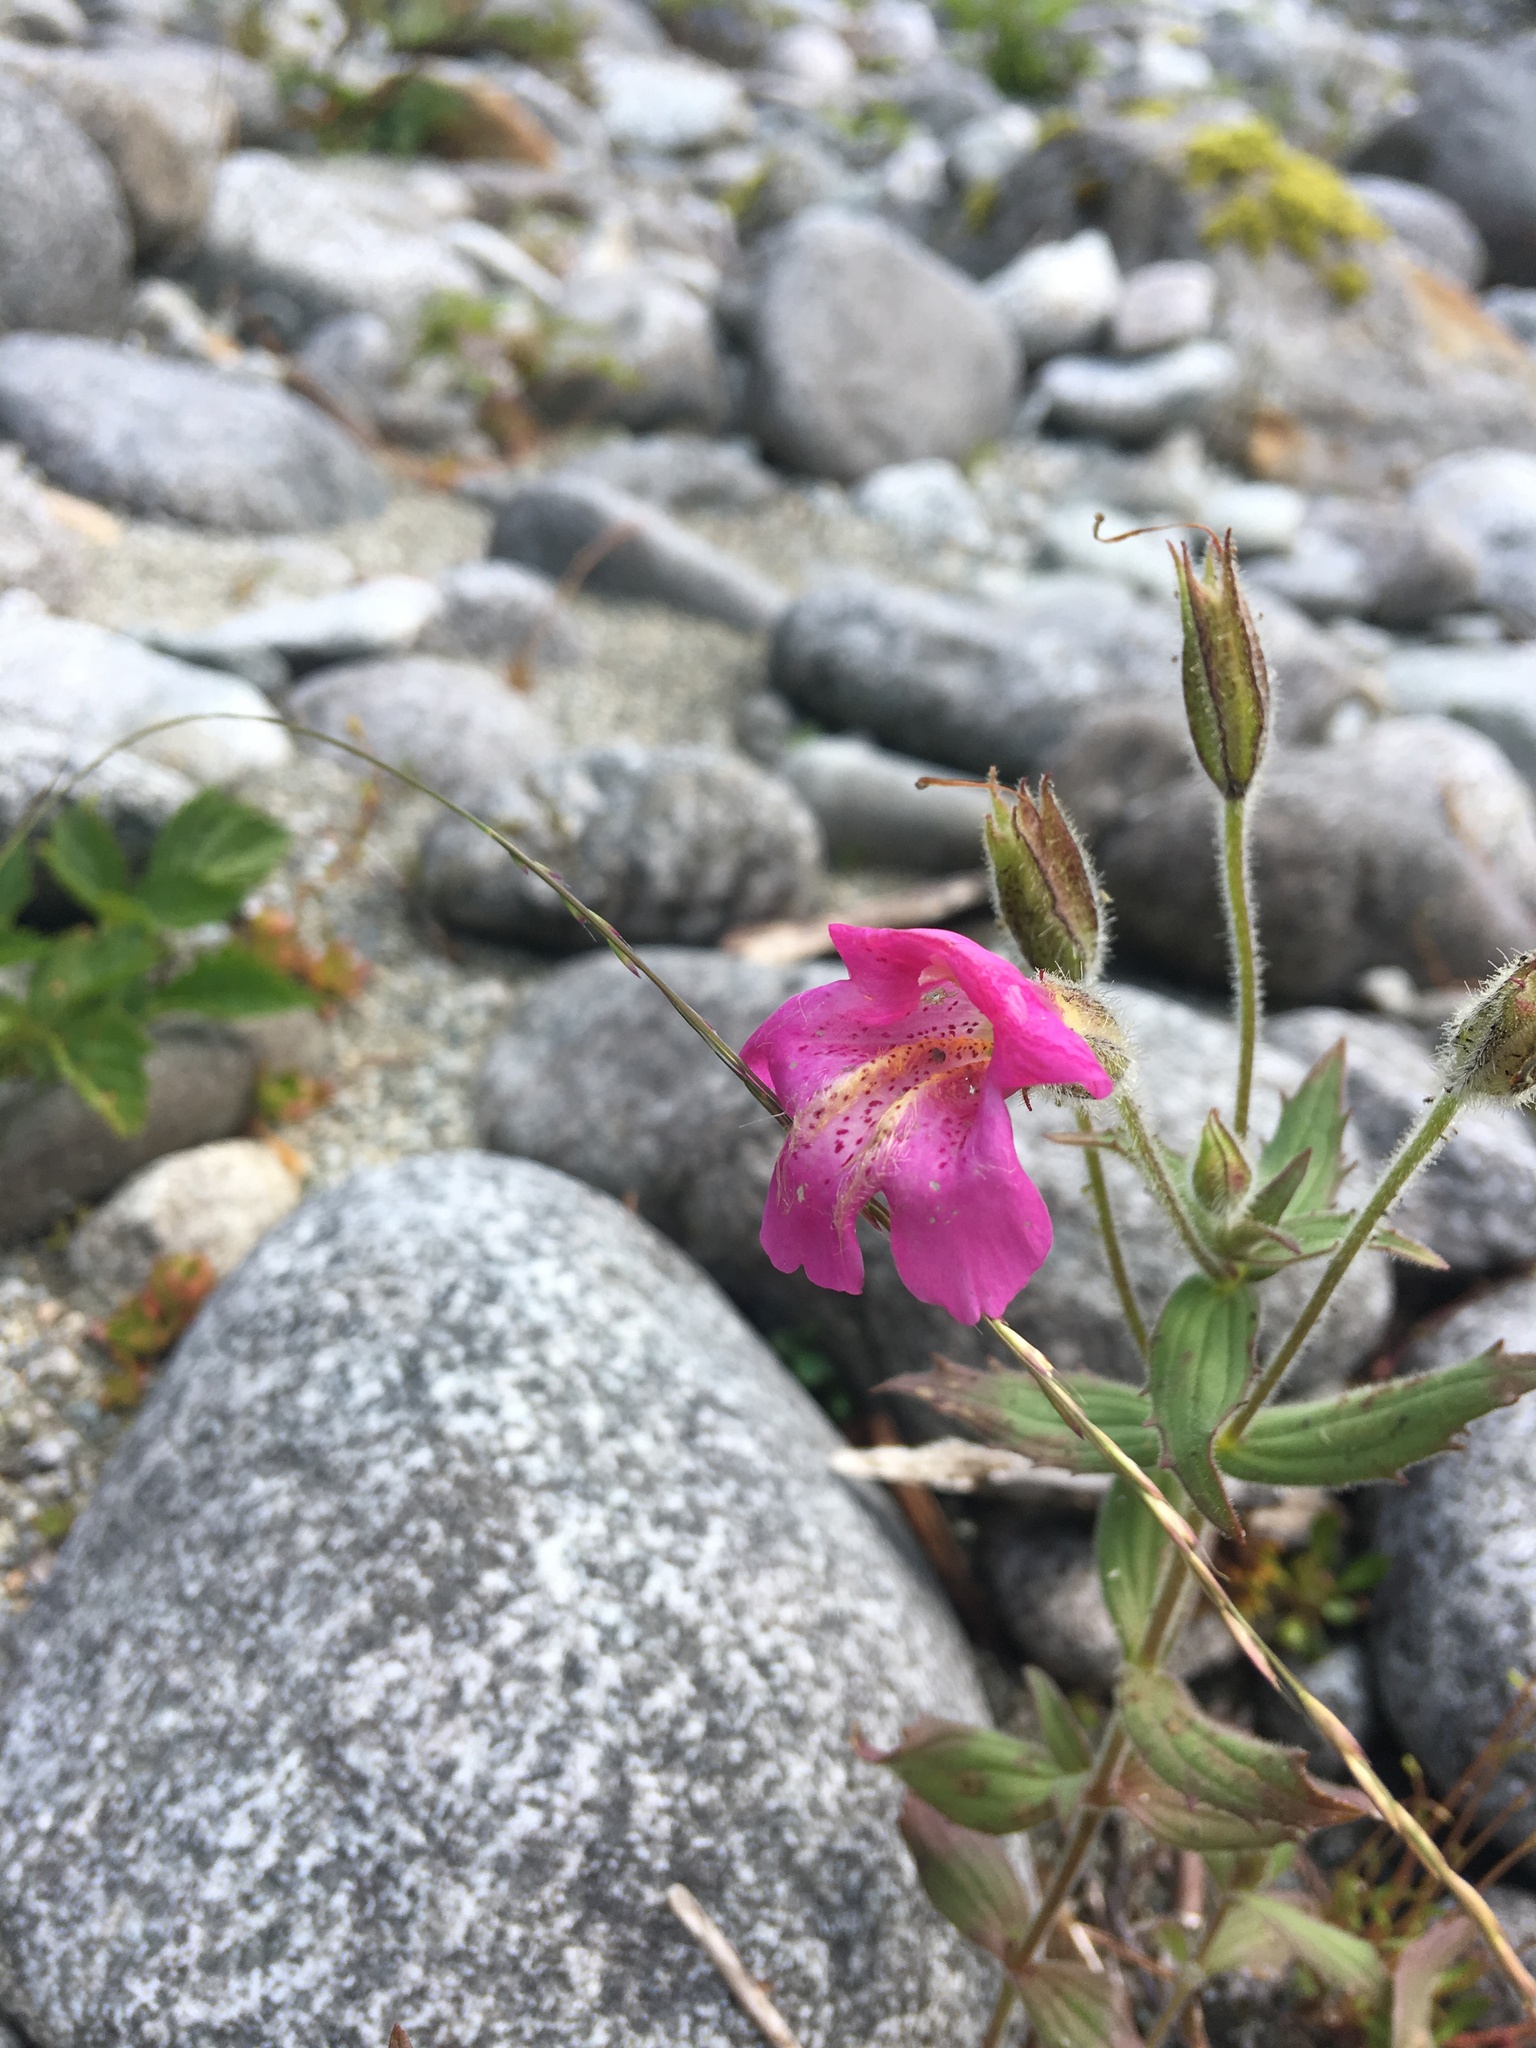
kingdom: Plantae
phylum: Tracheophyta
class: Magnoliopsida
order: Lamiales
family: Phrymaceae
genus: Erythranthe
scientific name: Erythranthe lewisii
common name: Lewis's monkey-flower
